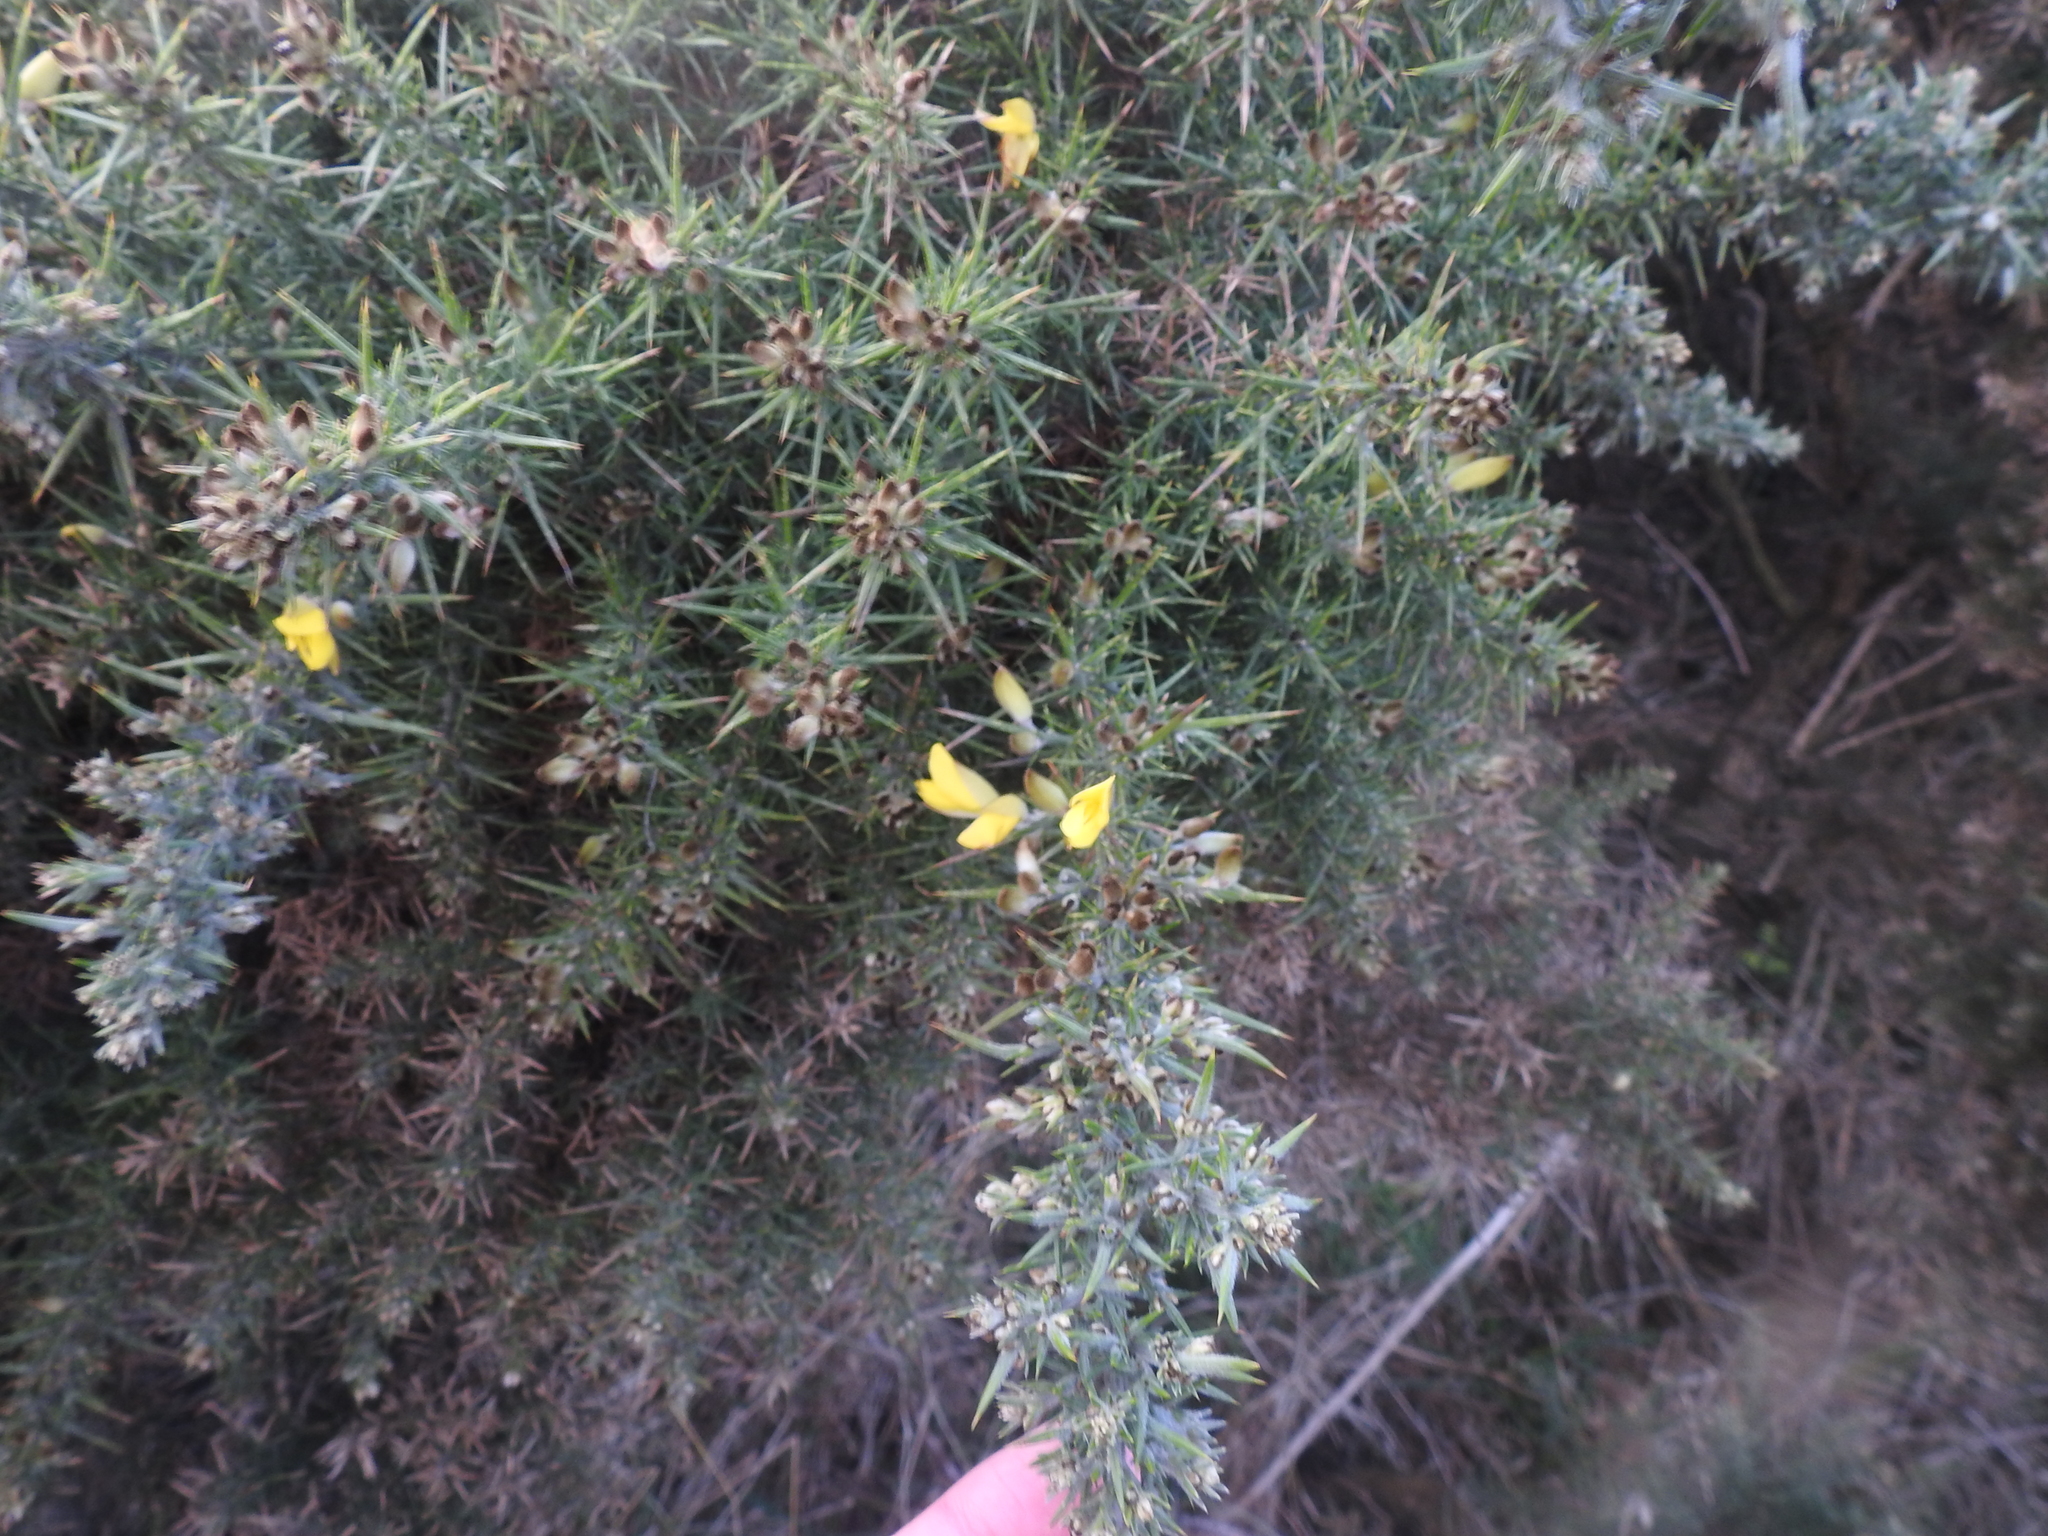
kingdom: Plantae
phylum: Tracheophyta
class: Magnoliopsida
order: Fabales
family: Fabaceae
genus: Ulex
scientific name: Ulex europaeus
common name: Common gorse
